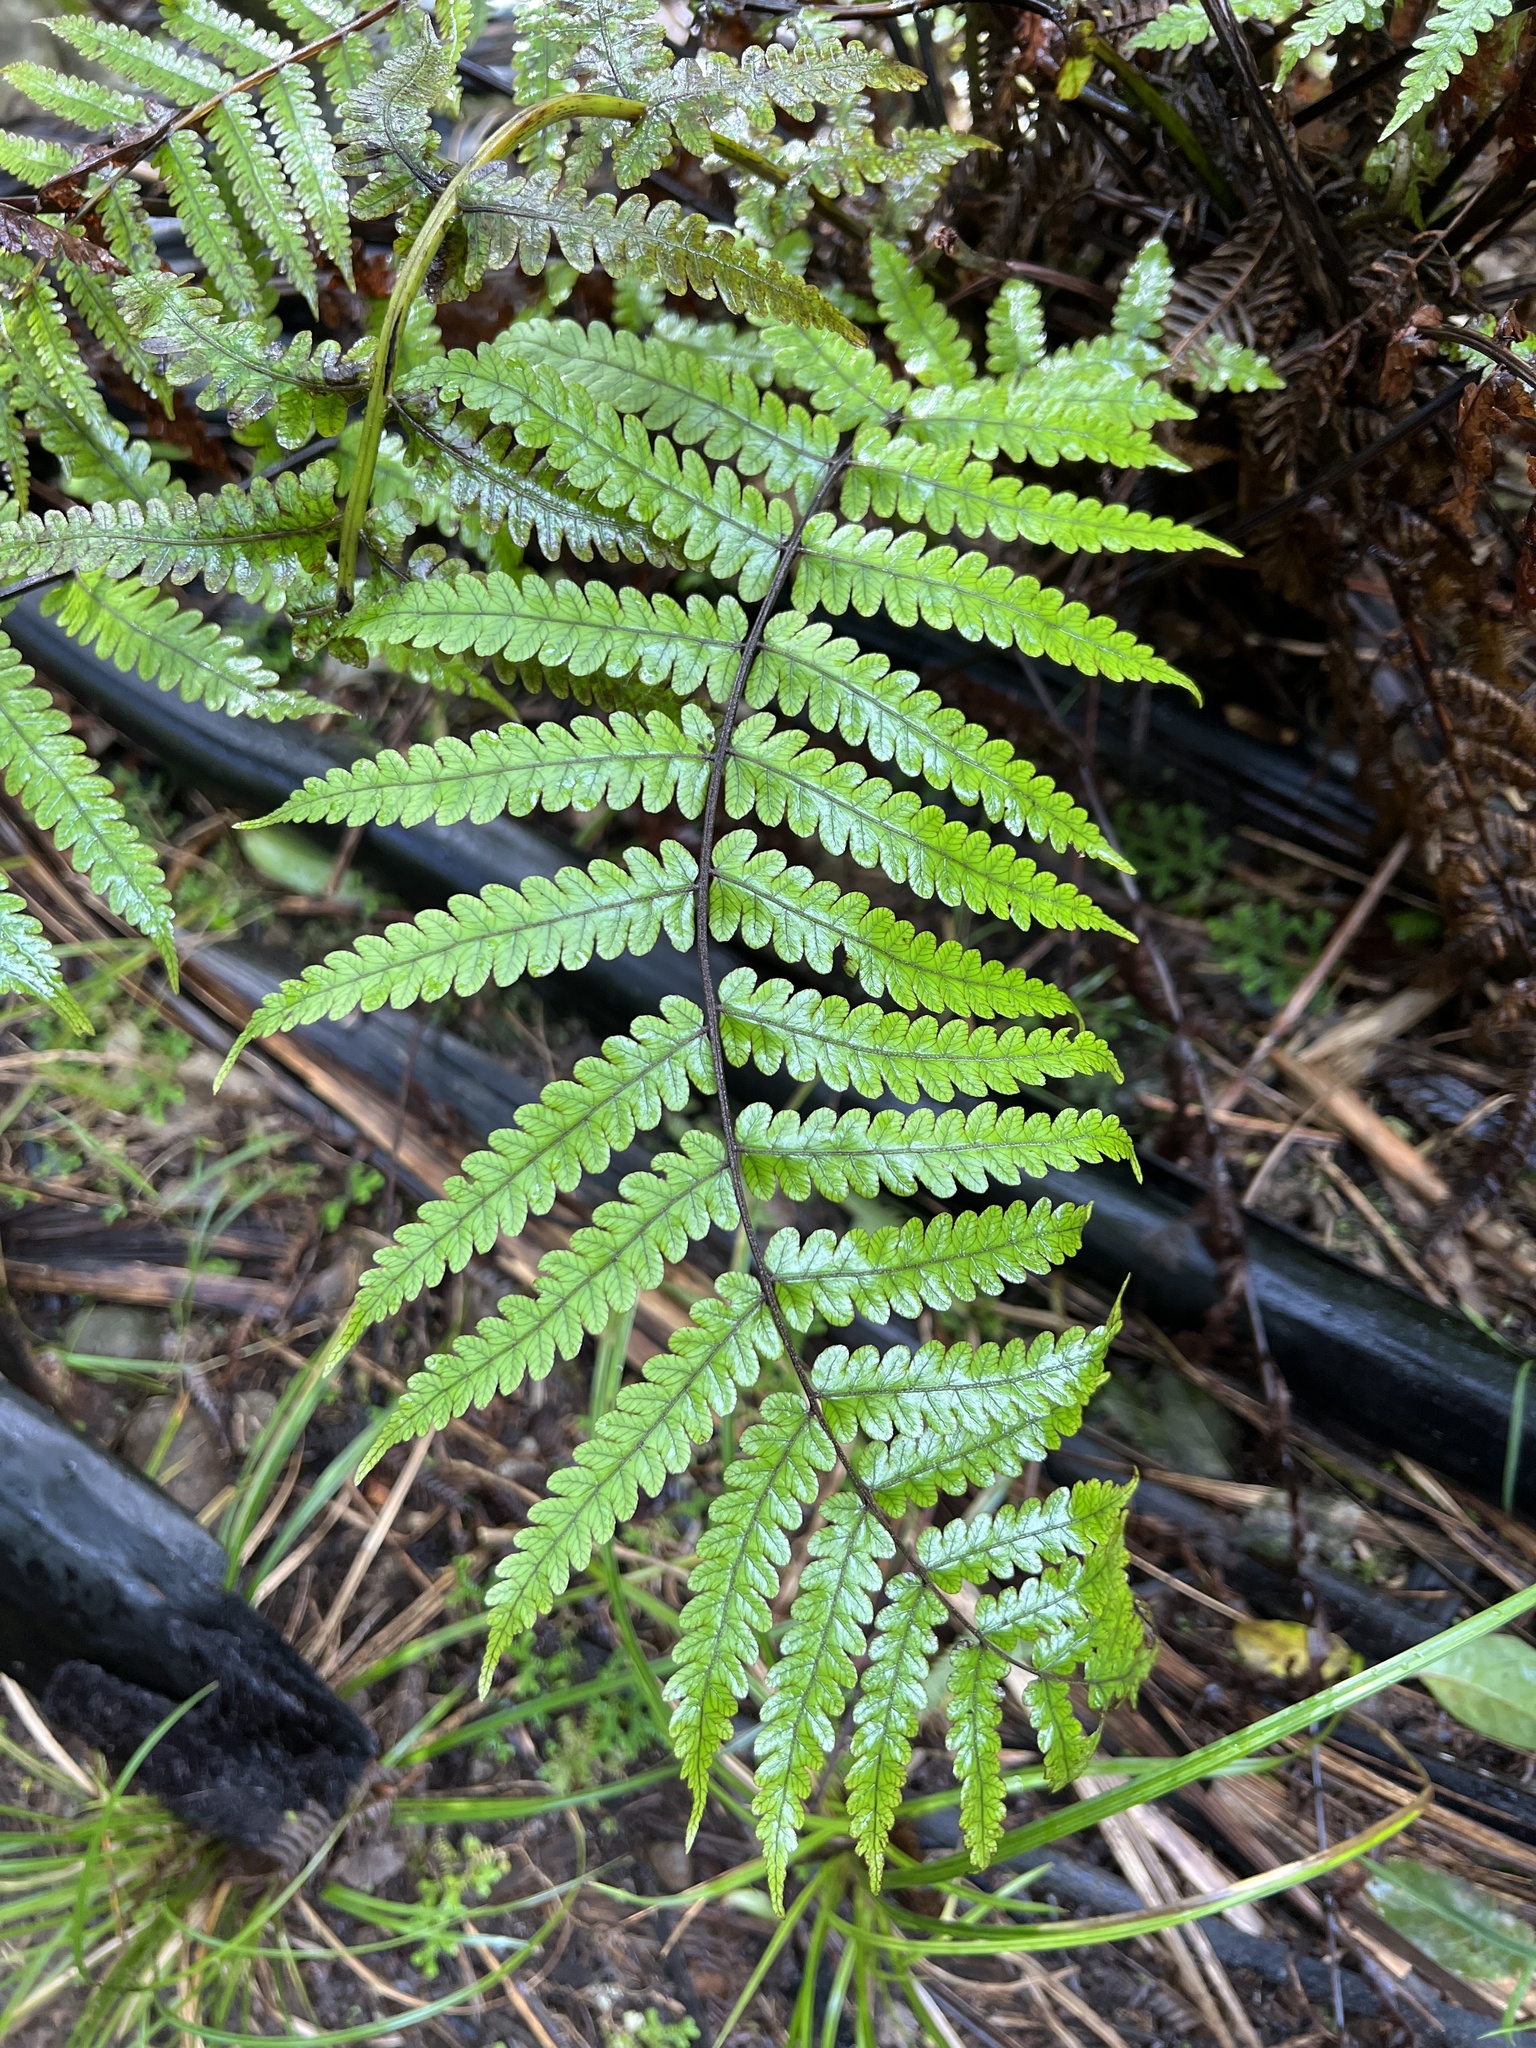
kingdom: Plantae
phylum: Tracheophyta
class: Polypodiopsida
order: Polypodiales
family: Thelypteridaceae
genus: Pakau
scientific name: Pakau pennigera
